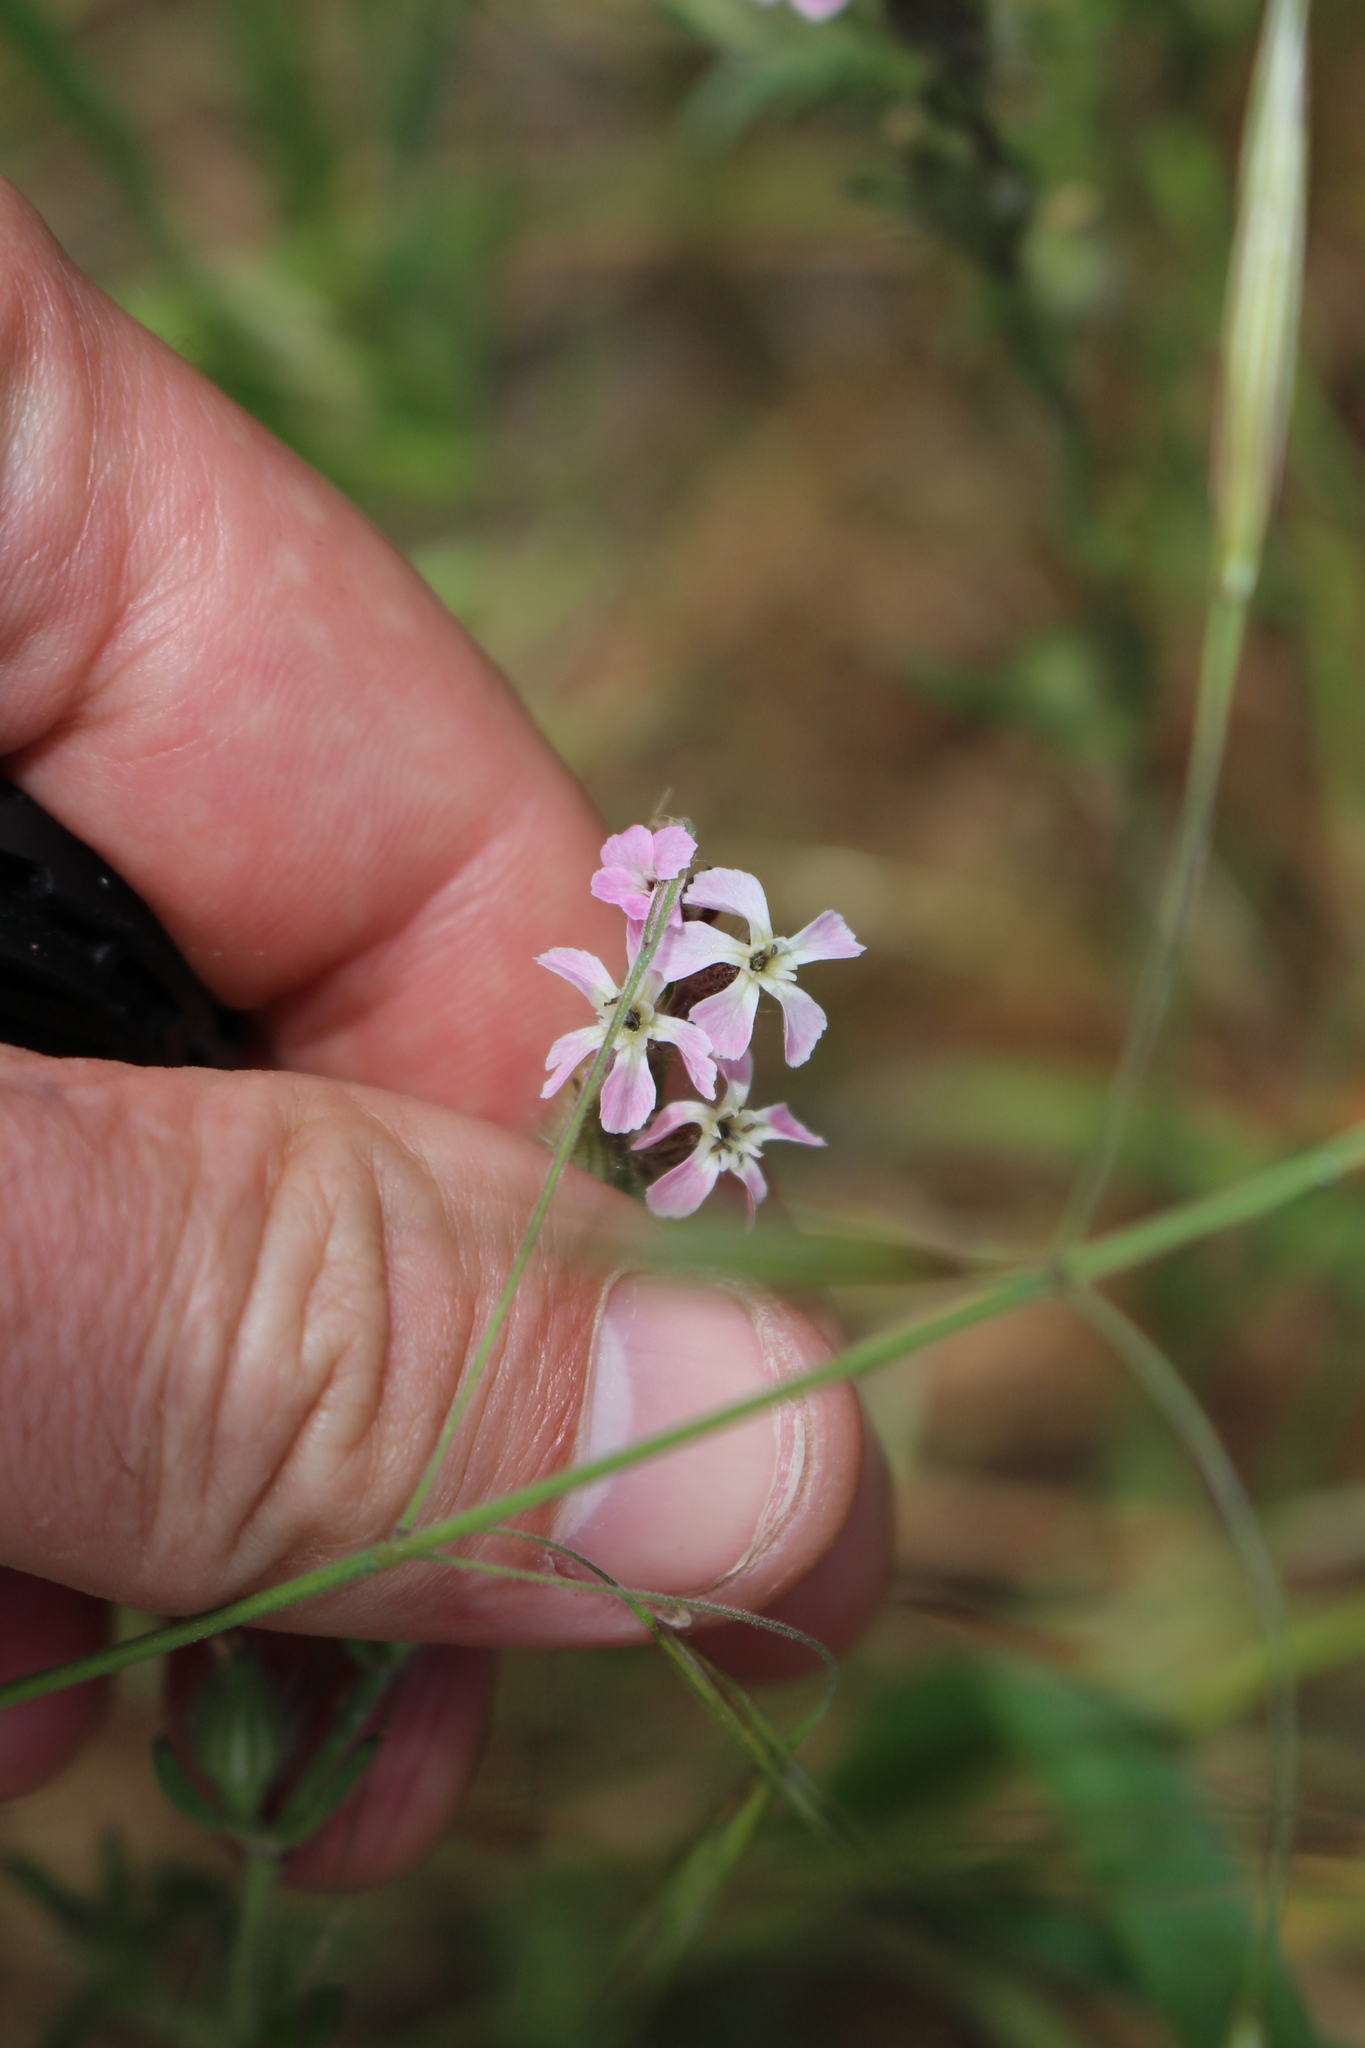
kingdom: Plantae
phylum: Tracheophyta
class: Magnoliopsida
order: Caryophyllales
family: Caryophyllaceae
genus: Silene
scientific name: Silene gallica
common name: Small-flowered catchfly
